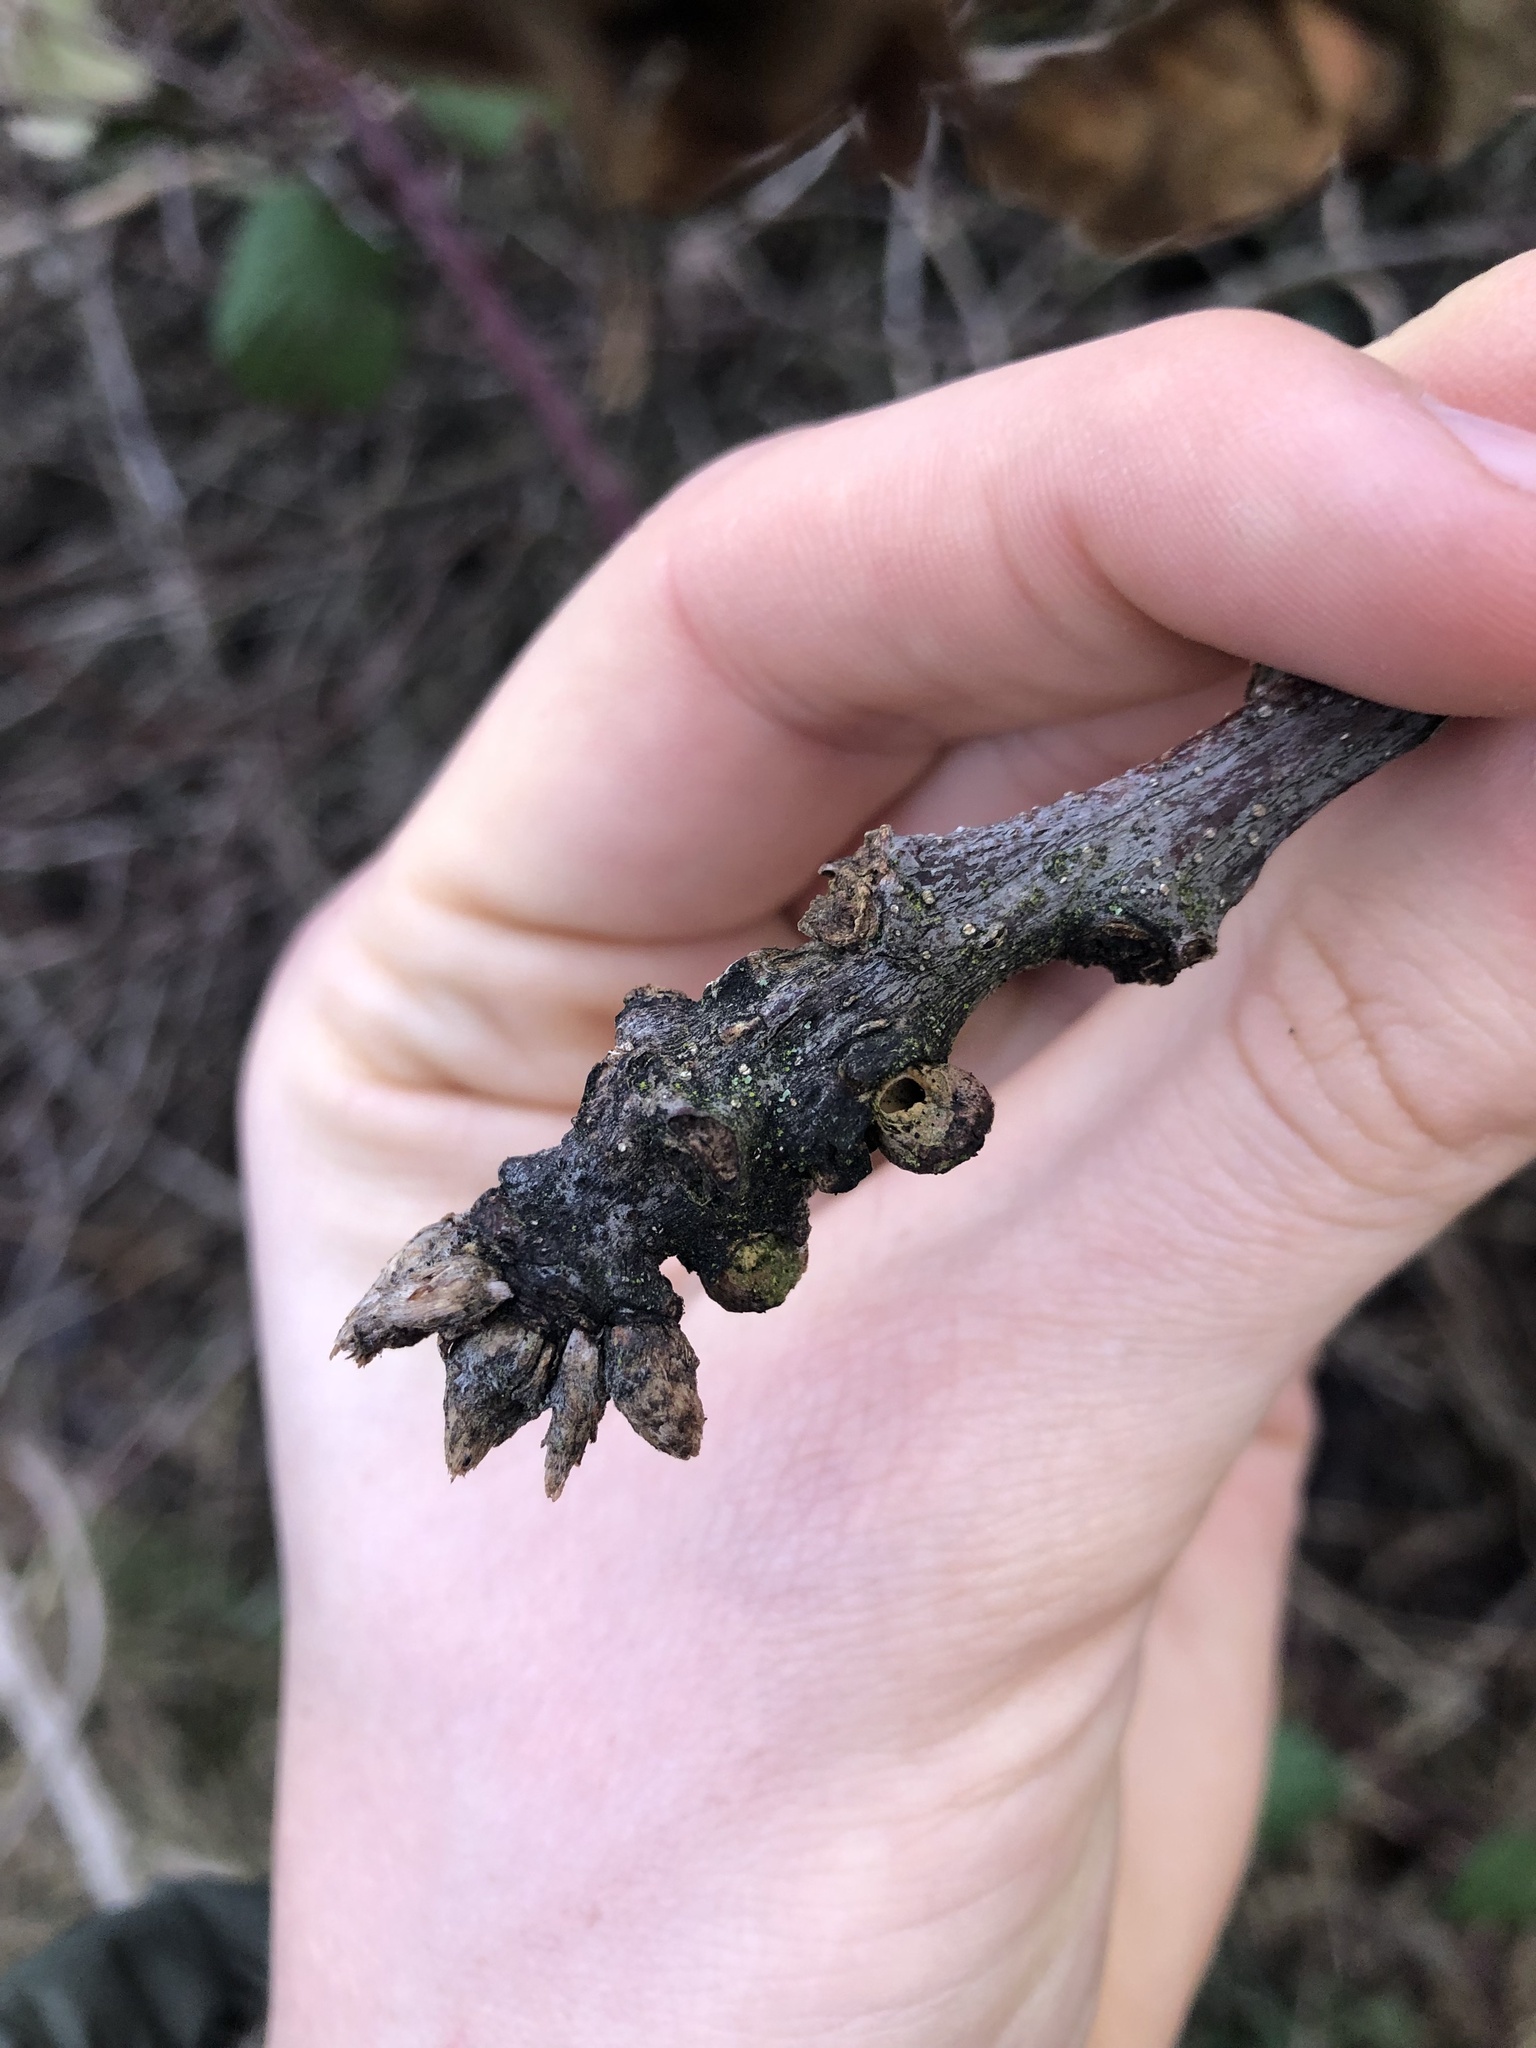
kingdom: Animalia
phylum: Arthropoda
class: Insecta
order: Hymenoptera
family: Cynipidae
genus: Disholcaspis
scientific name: Disholcaspis
